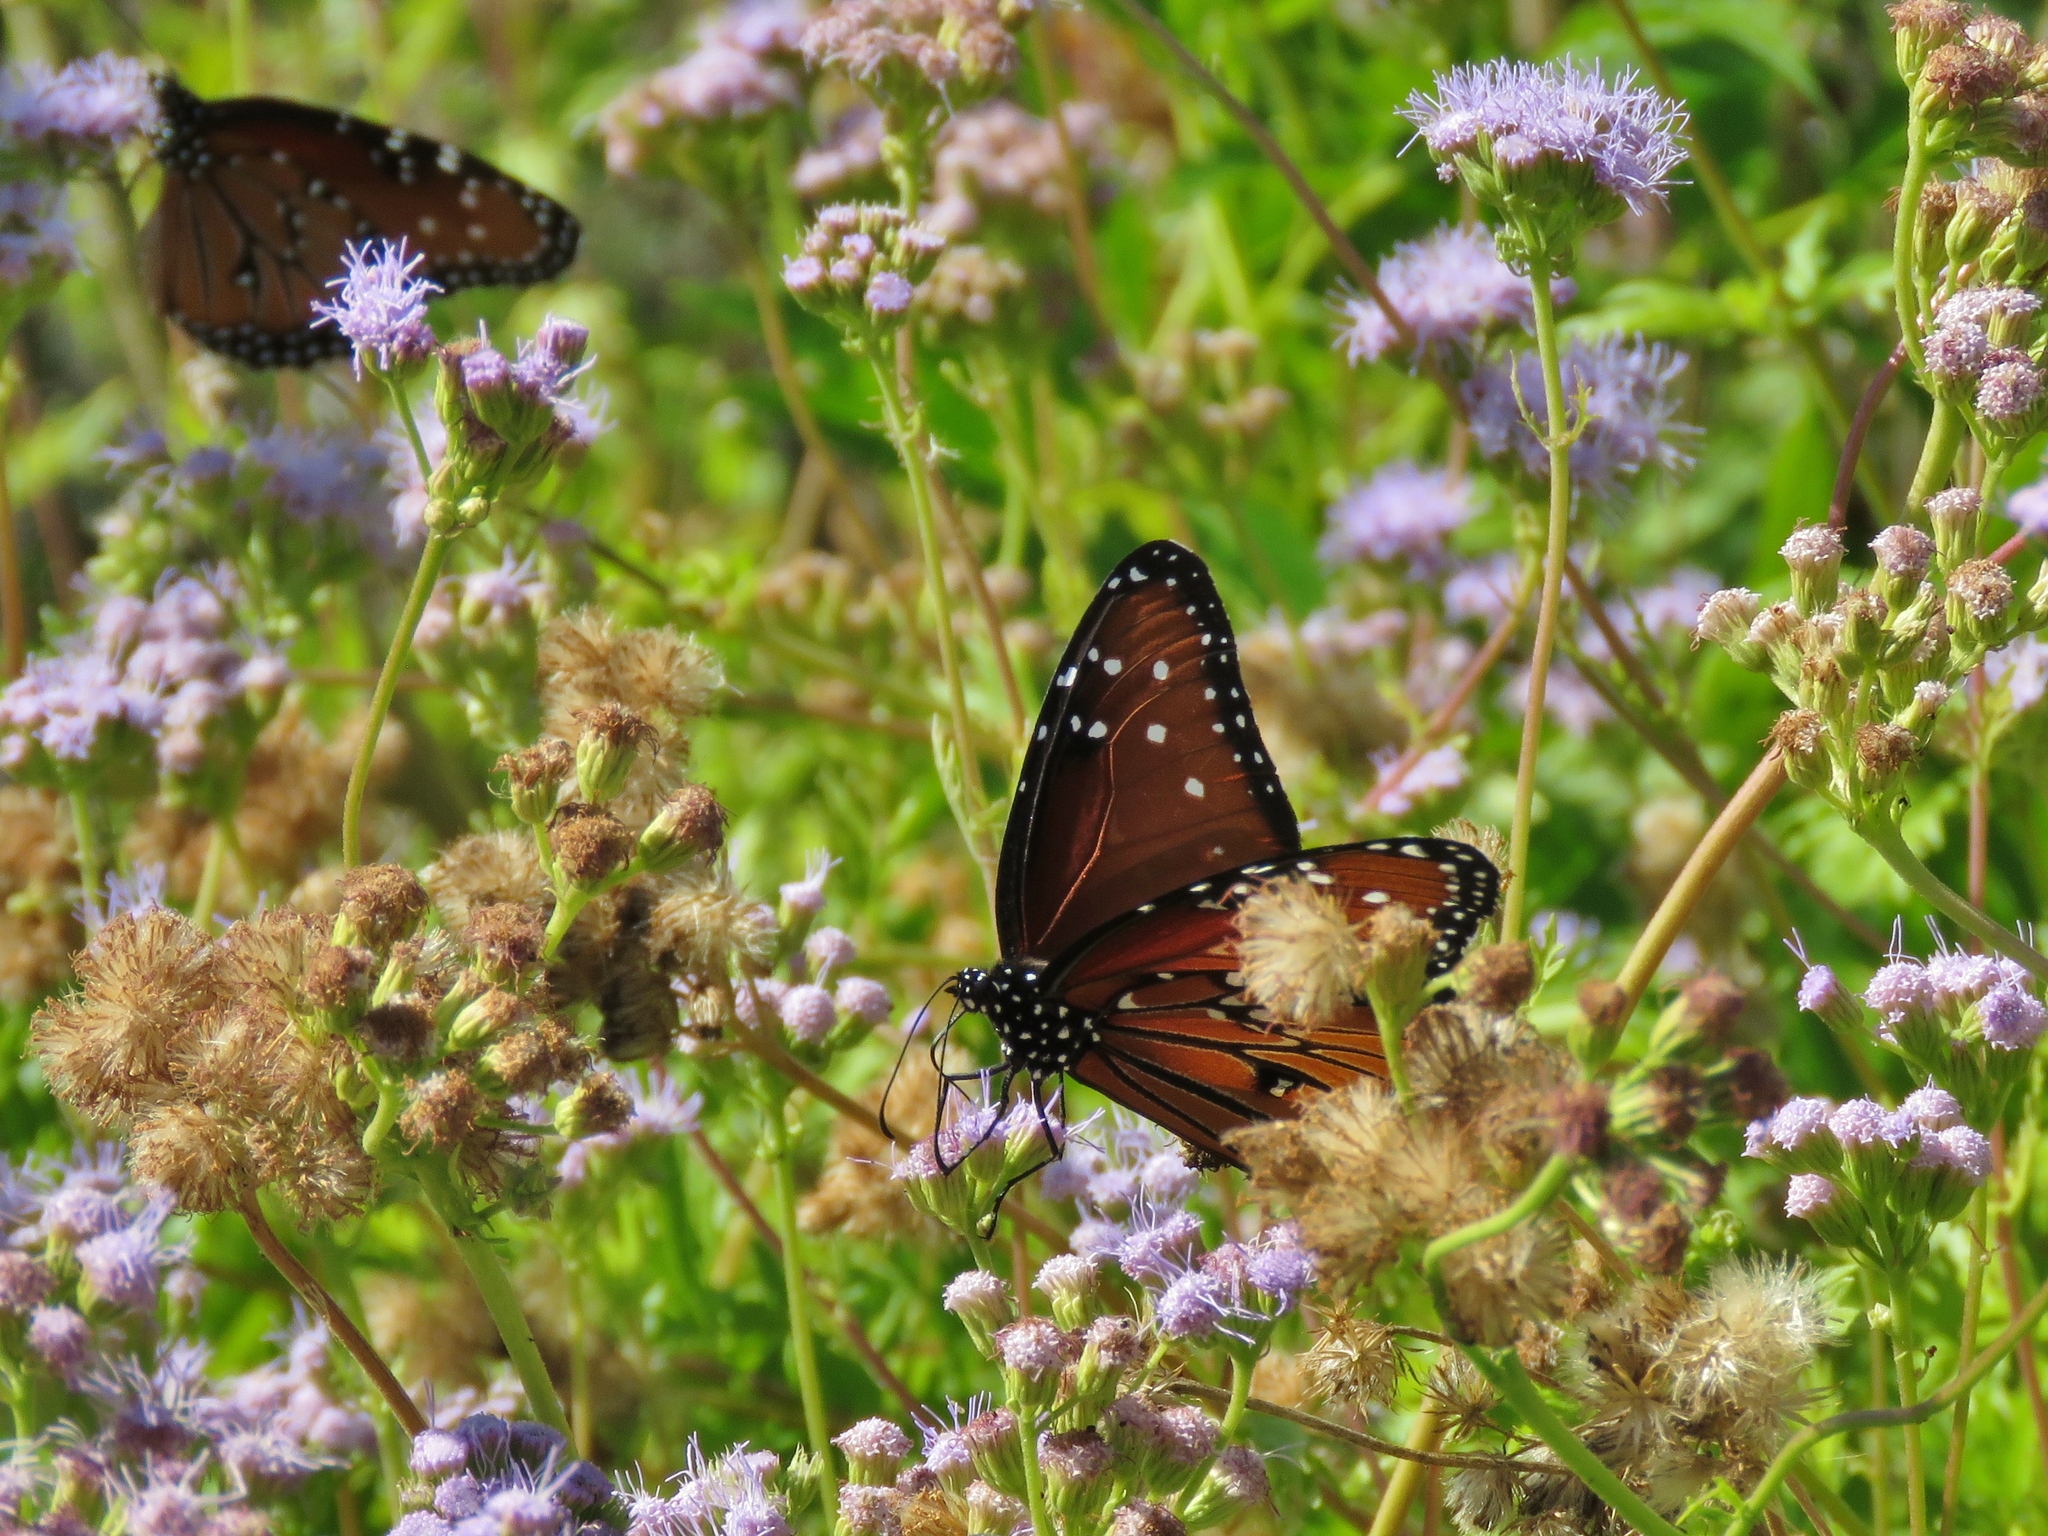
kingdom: Animalia
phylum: Arthropoda
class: Insecta
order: Lepidoptera
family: Nymphalidae
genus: Danaus
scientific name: Danaus gilippus
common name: Queen
